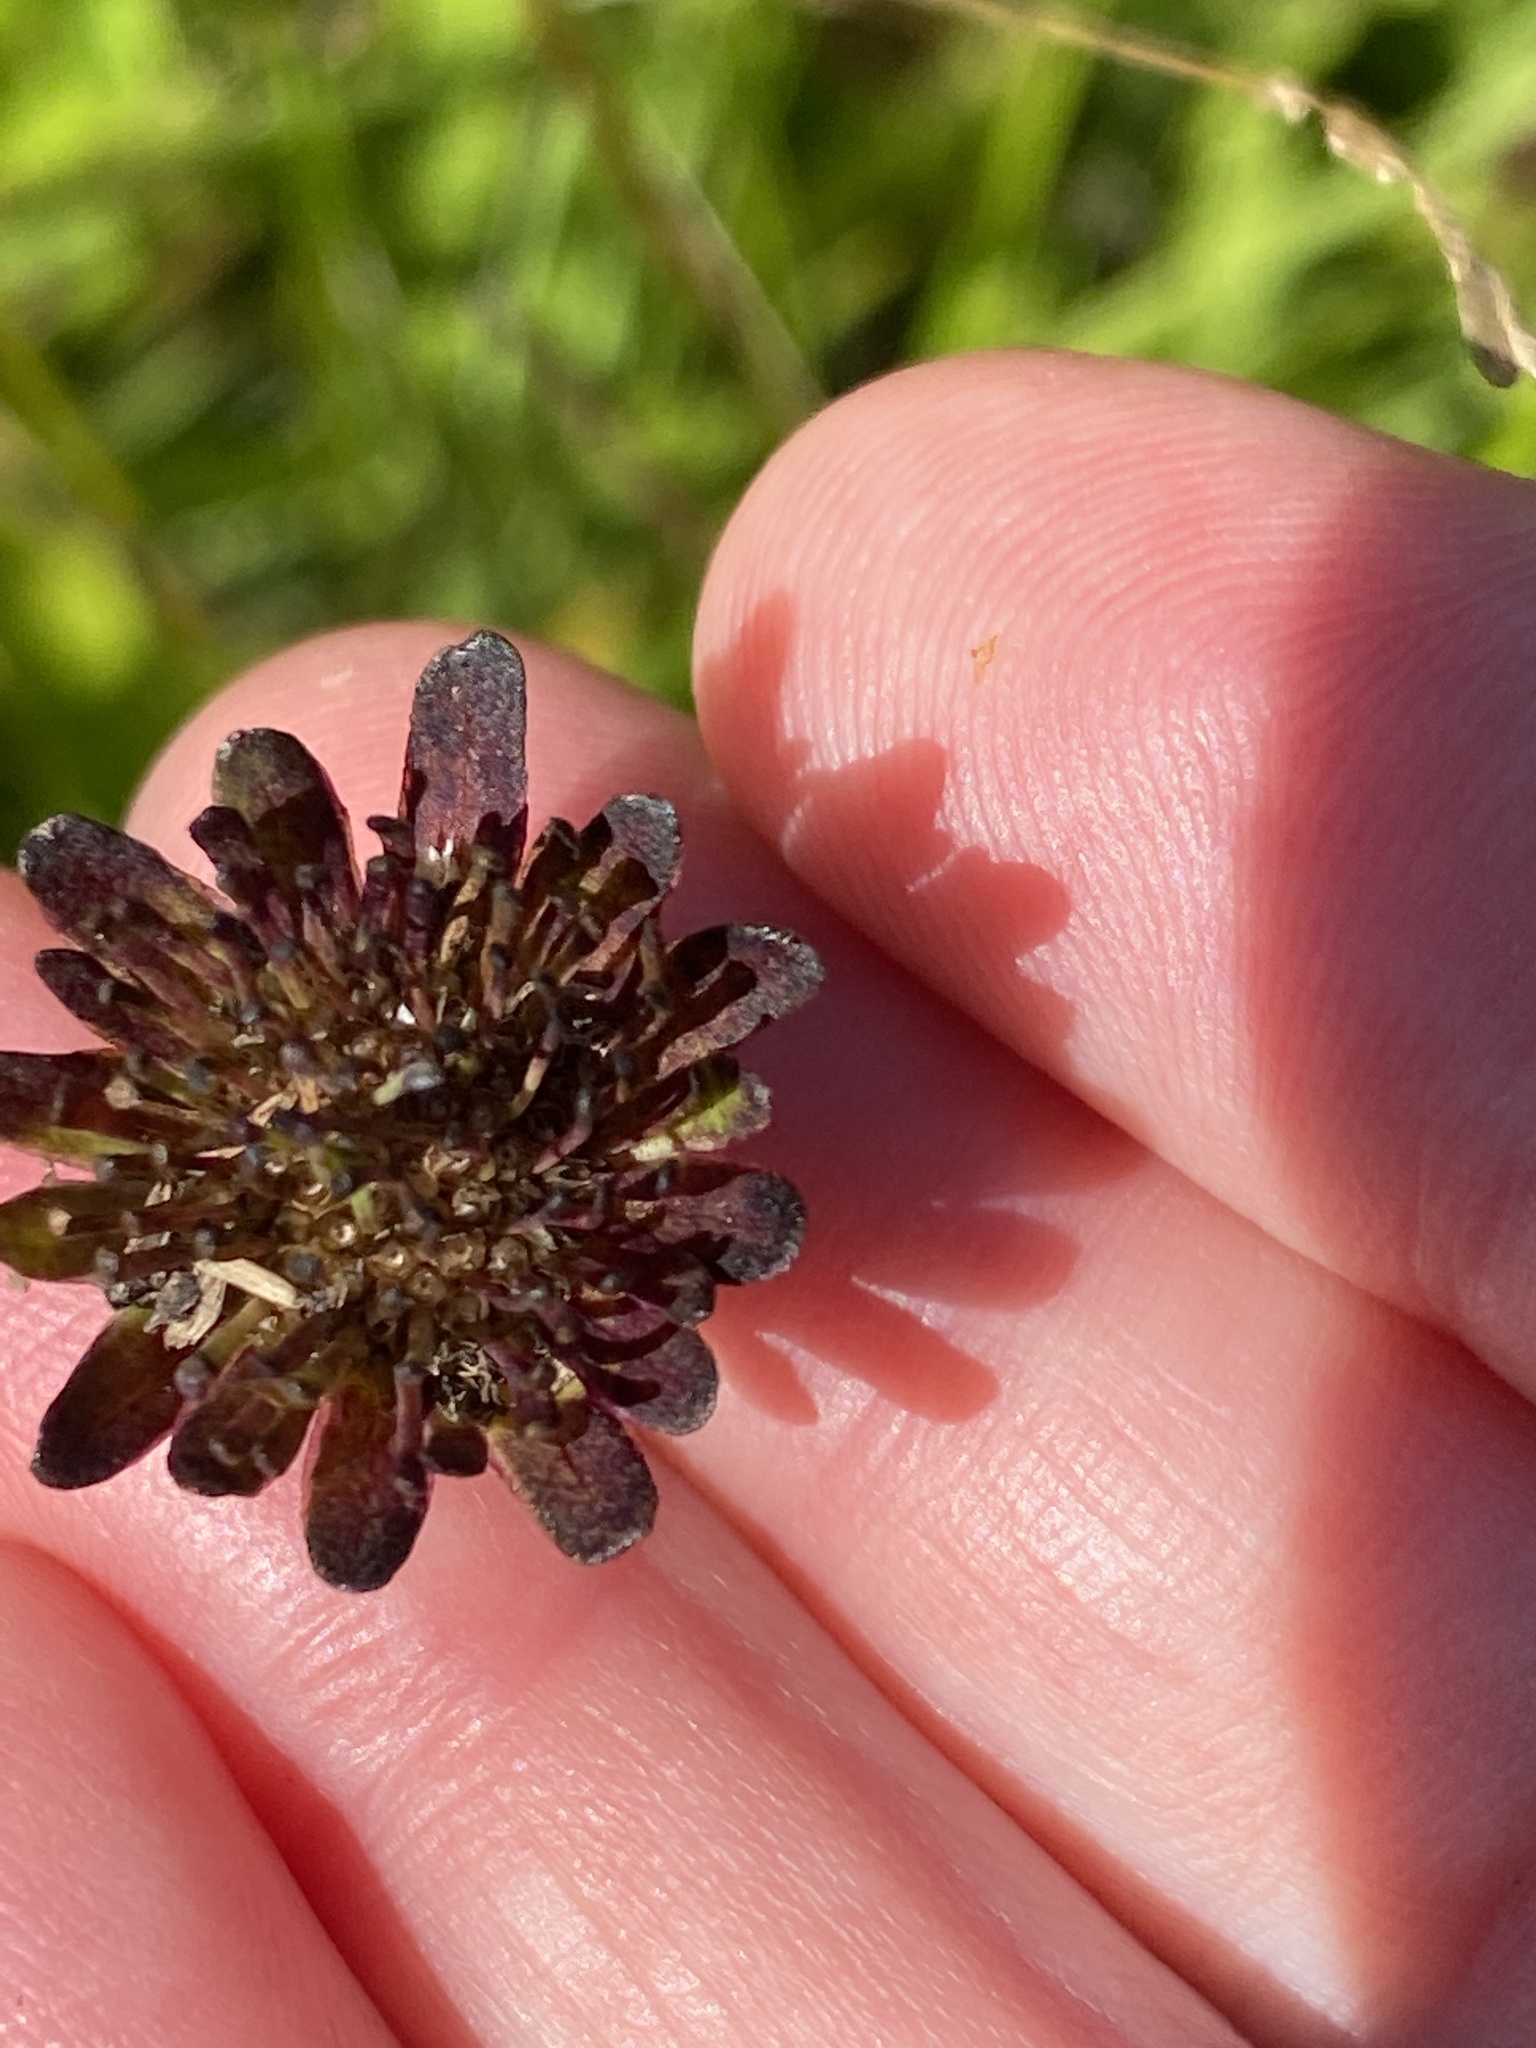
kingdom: Plantae
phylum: Tracheophyta
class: Magnoliopsida
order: Asterales
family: Asteraceae
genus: Marshallia
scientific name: Marshallia obovata
